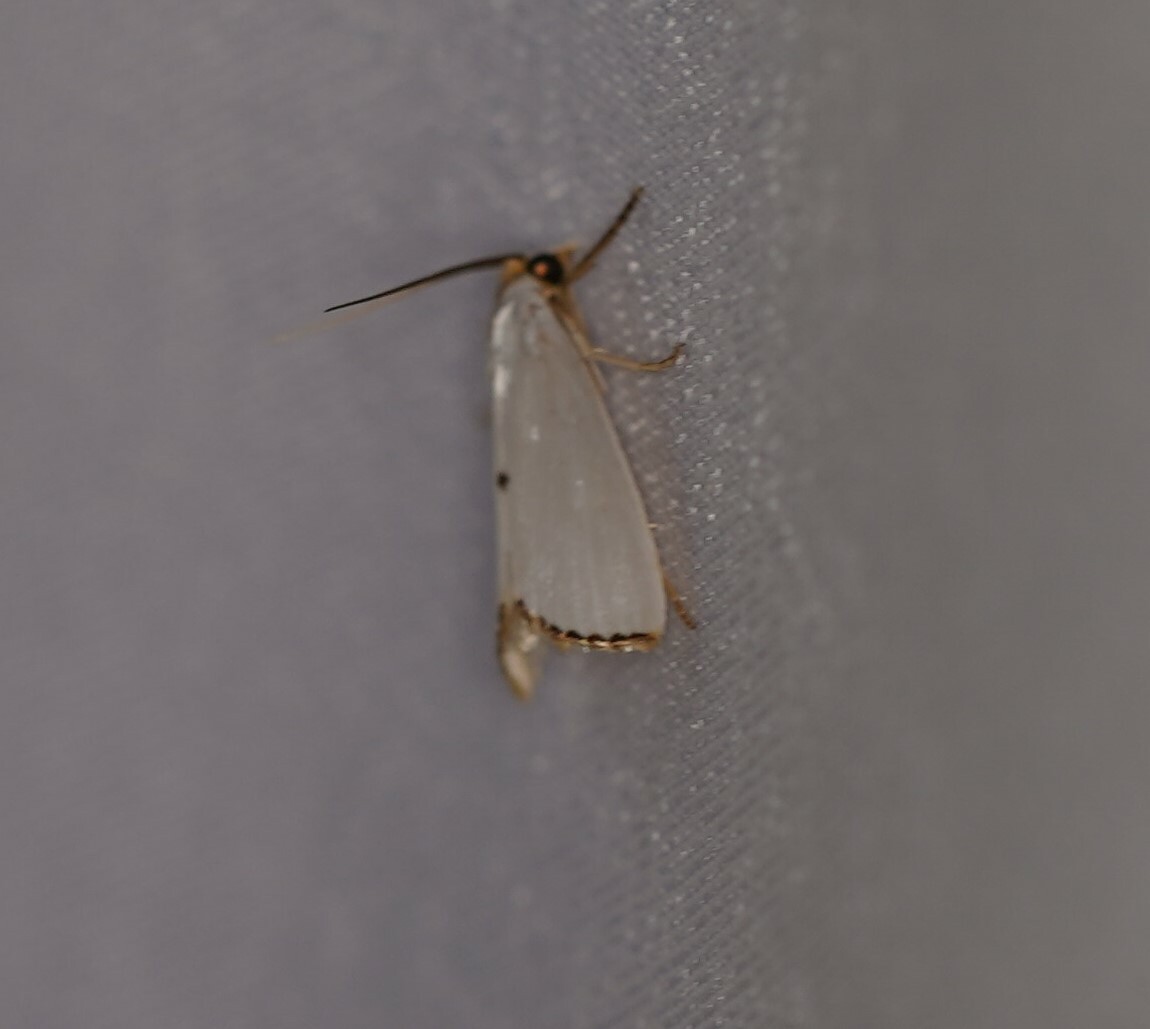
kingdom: Animalia
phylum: Arthropoda
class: Insecta
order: Lepidoptera
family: Crambidae
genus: Argyria
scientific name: Argyria nivalis
